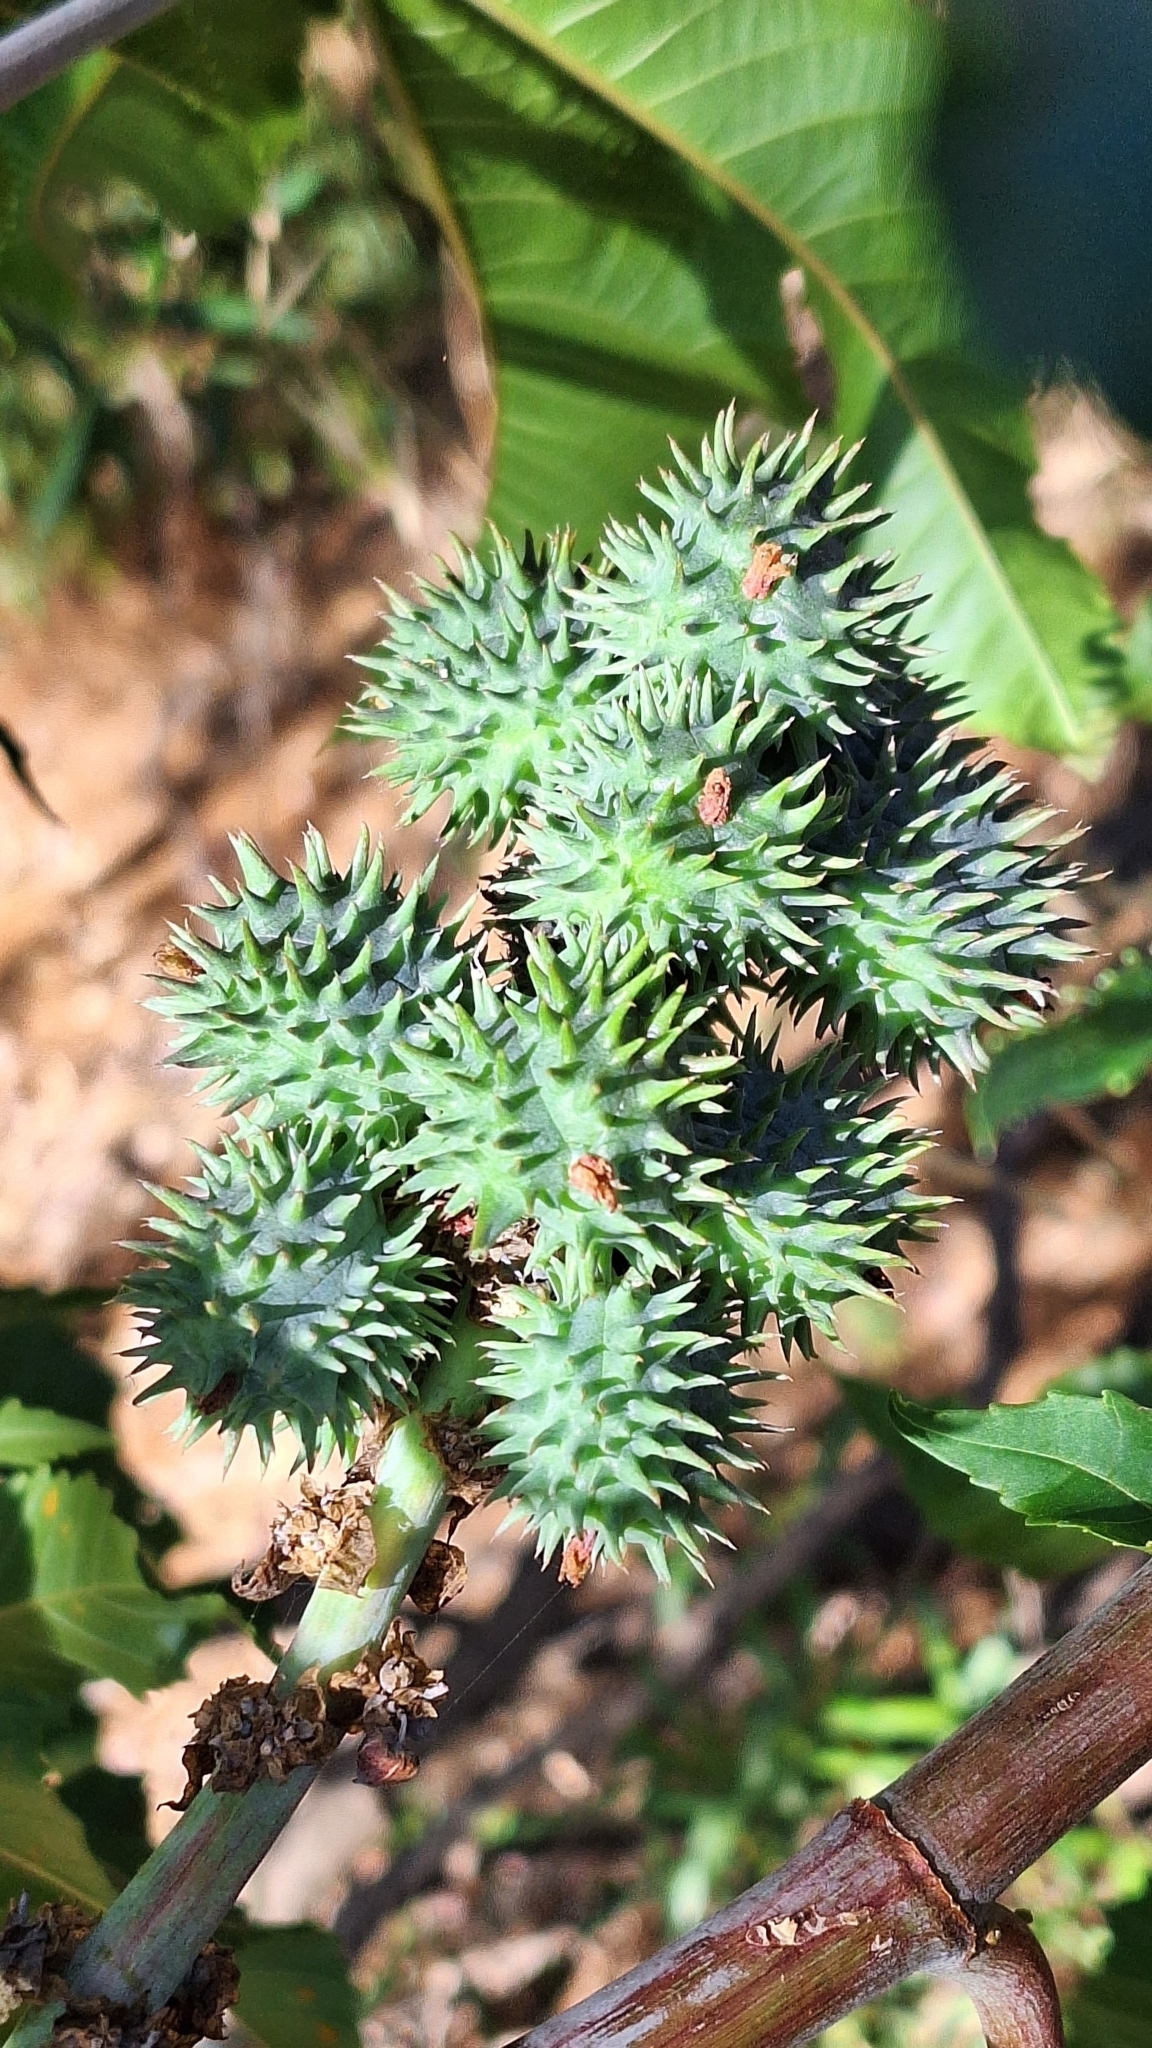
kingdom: Plantae
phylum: Tracheophyta
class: Magnoliopsida
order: Malpighiales
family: Euphorbiaceae
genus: Ricinus
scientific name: Ricinus communis
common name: Castor-oil-plant
